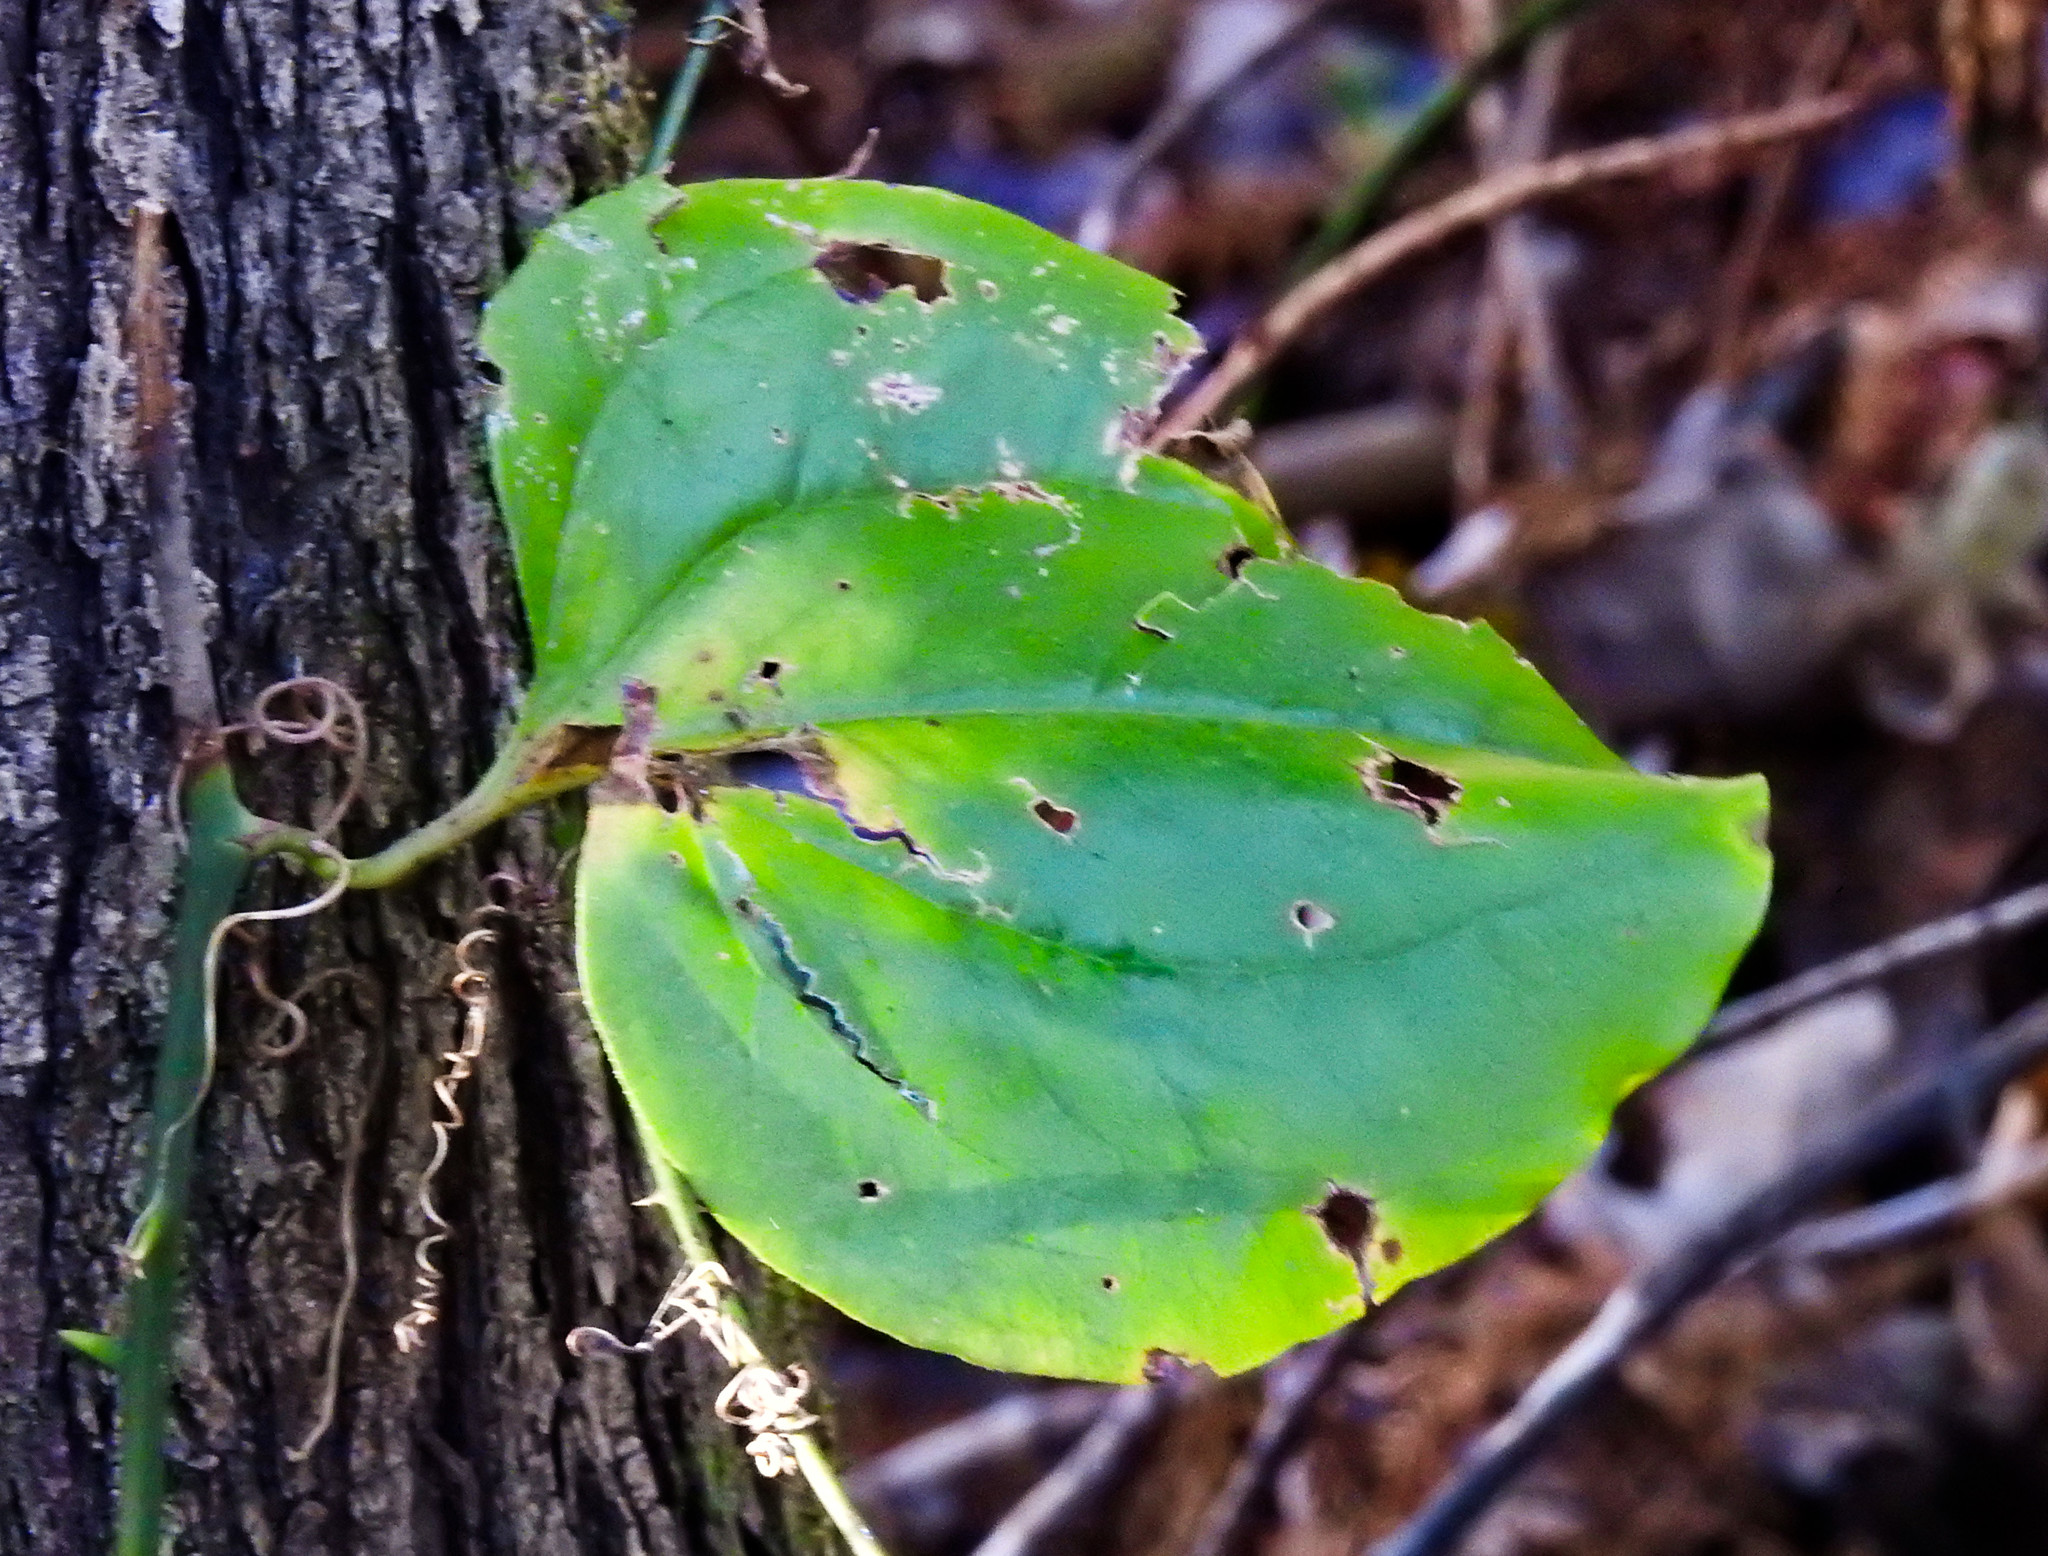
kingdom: Plantae
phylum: Tracheophyta
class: Liliopsida
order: Liliales
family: Smilacaceae
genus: Smilax
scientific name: Smilax rotundifolia
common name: Bullbriar
